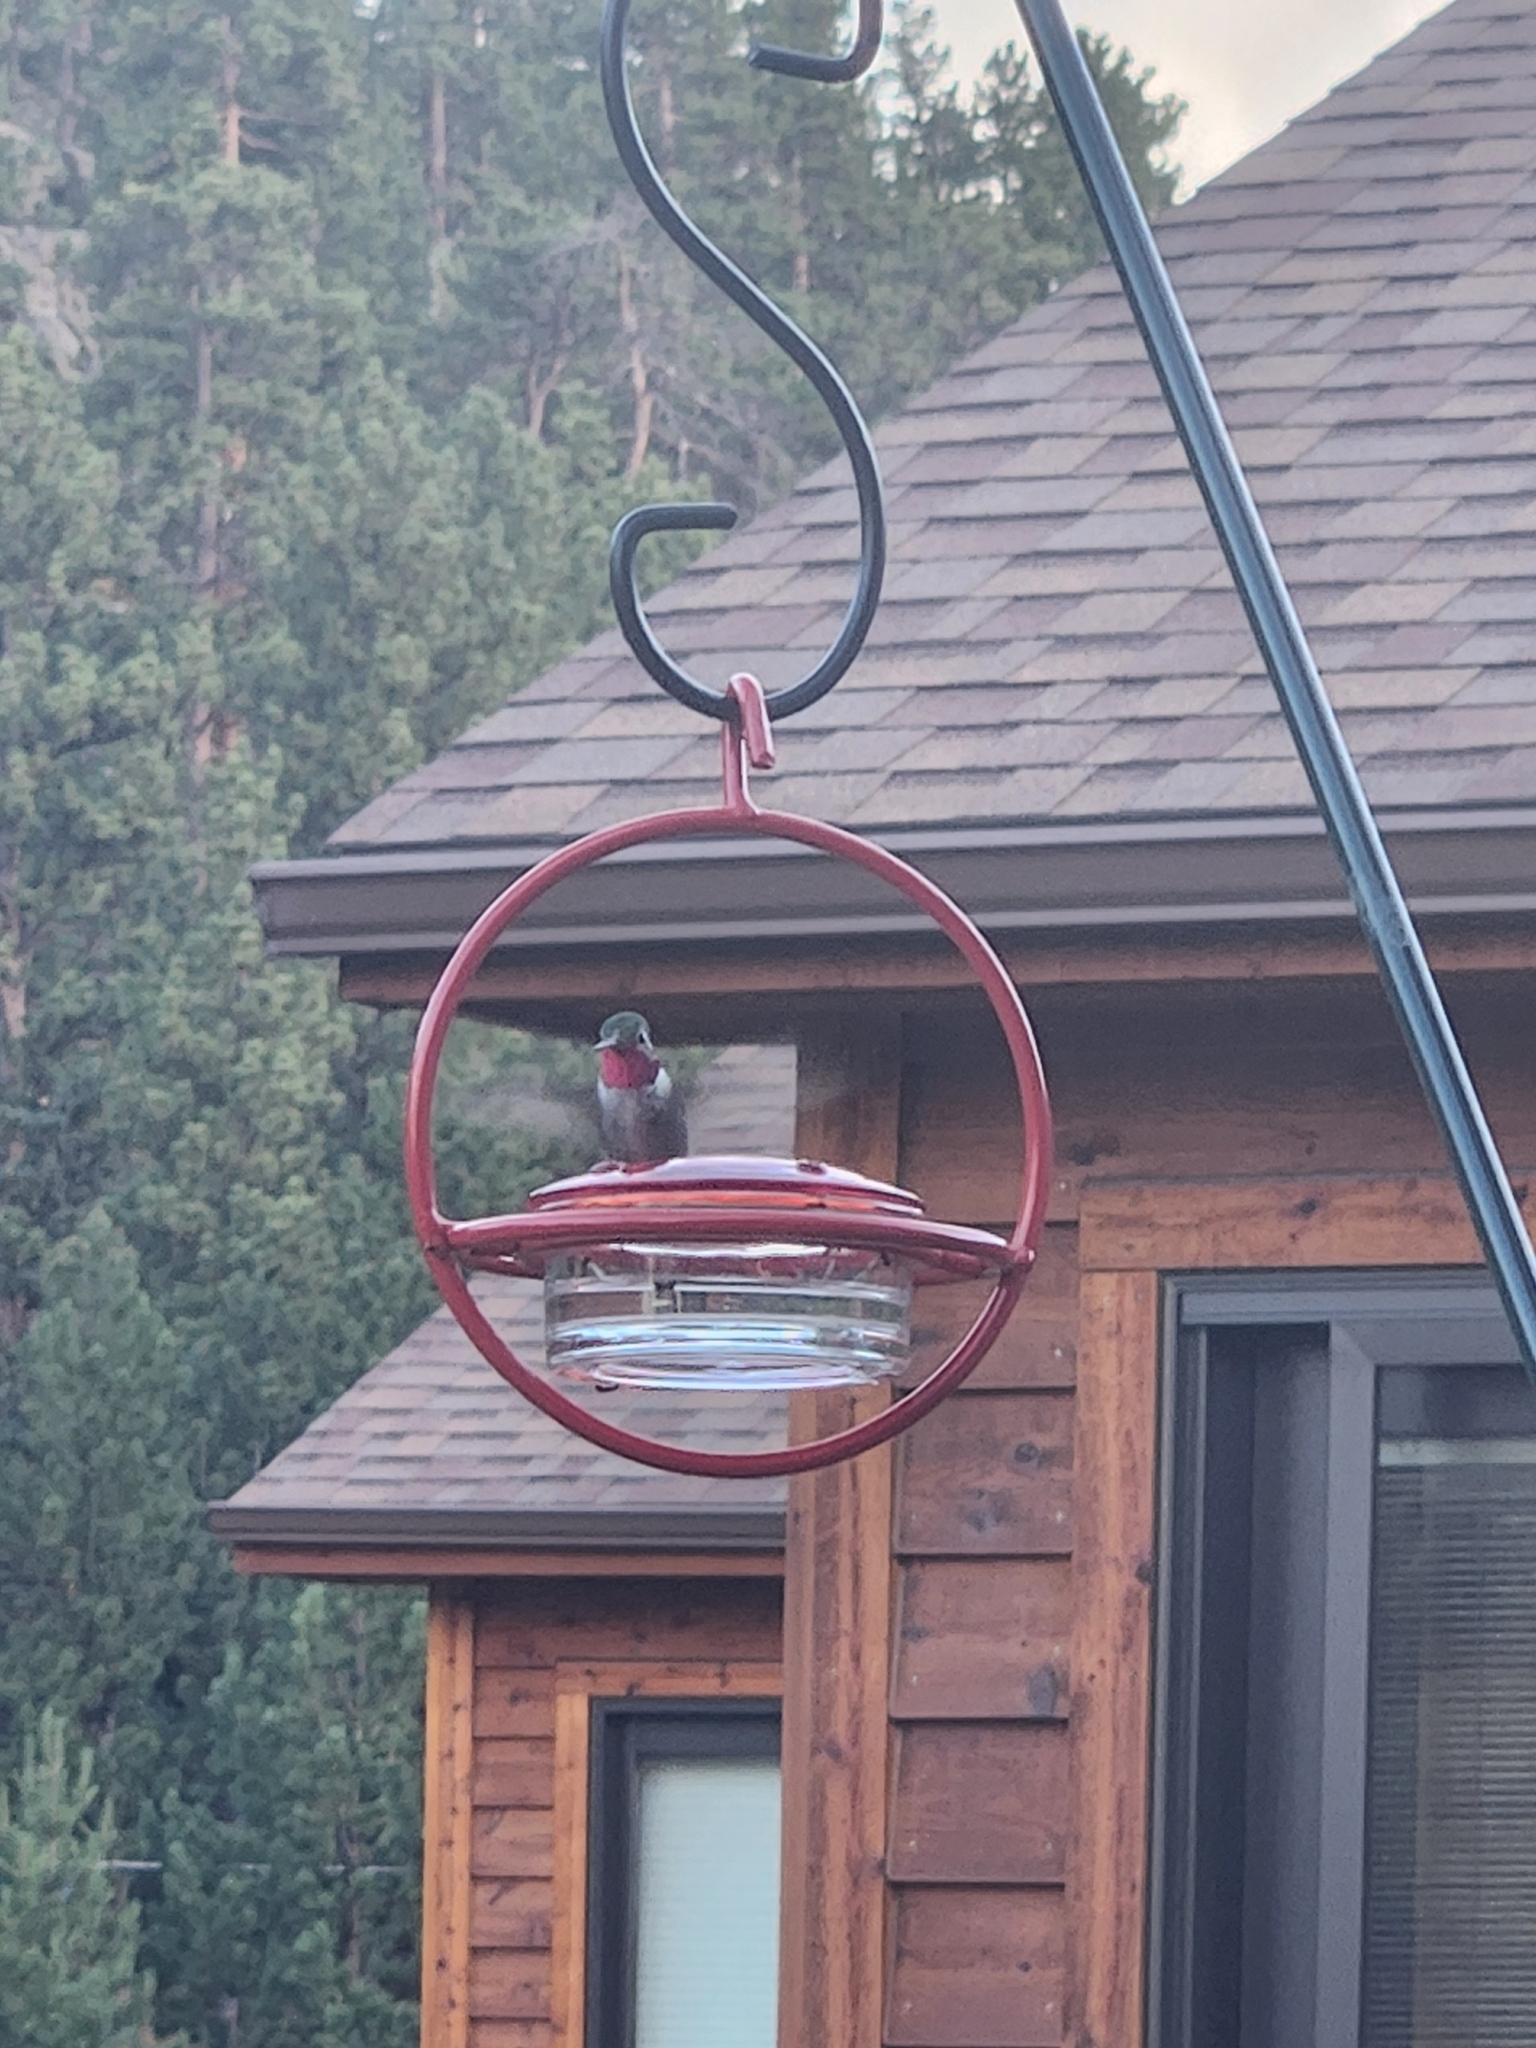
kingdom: Animalia
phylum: Chordata
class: Aves
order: Apodiformes
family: Trochilidae
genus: Selasphorus
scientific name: Selasphorus platycercus
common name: Broad-tailed hummingbird
